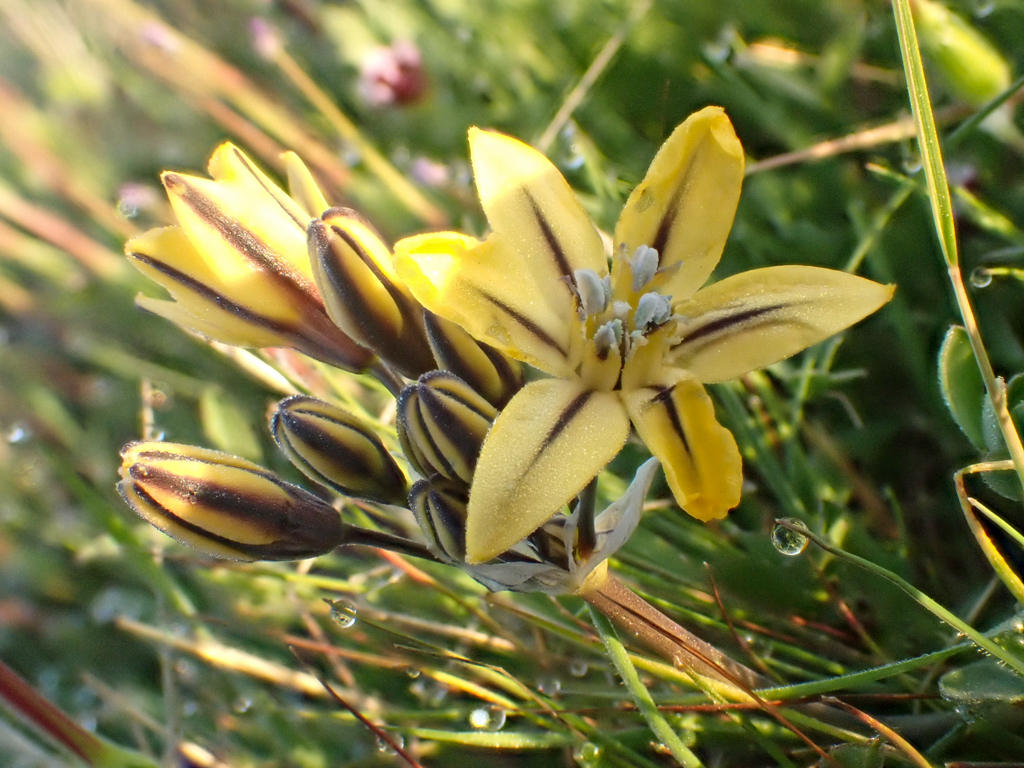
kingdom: Plantae
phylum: Tracheophyta
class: Liliopsida
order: Asparagales
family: Asparagaceae
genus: Triteleia
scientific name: Triteleia ixioides
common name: Yellow-brodiaea
